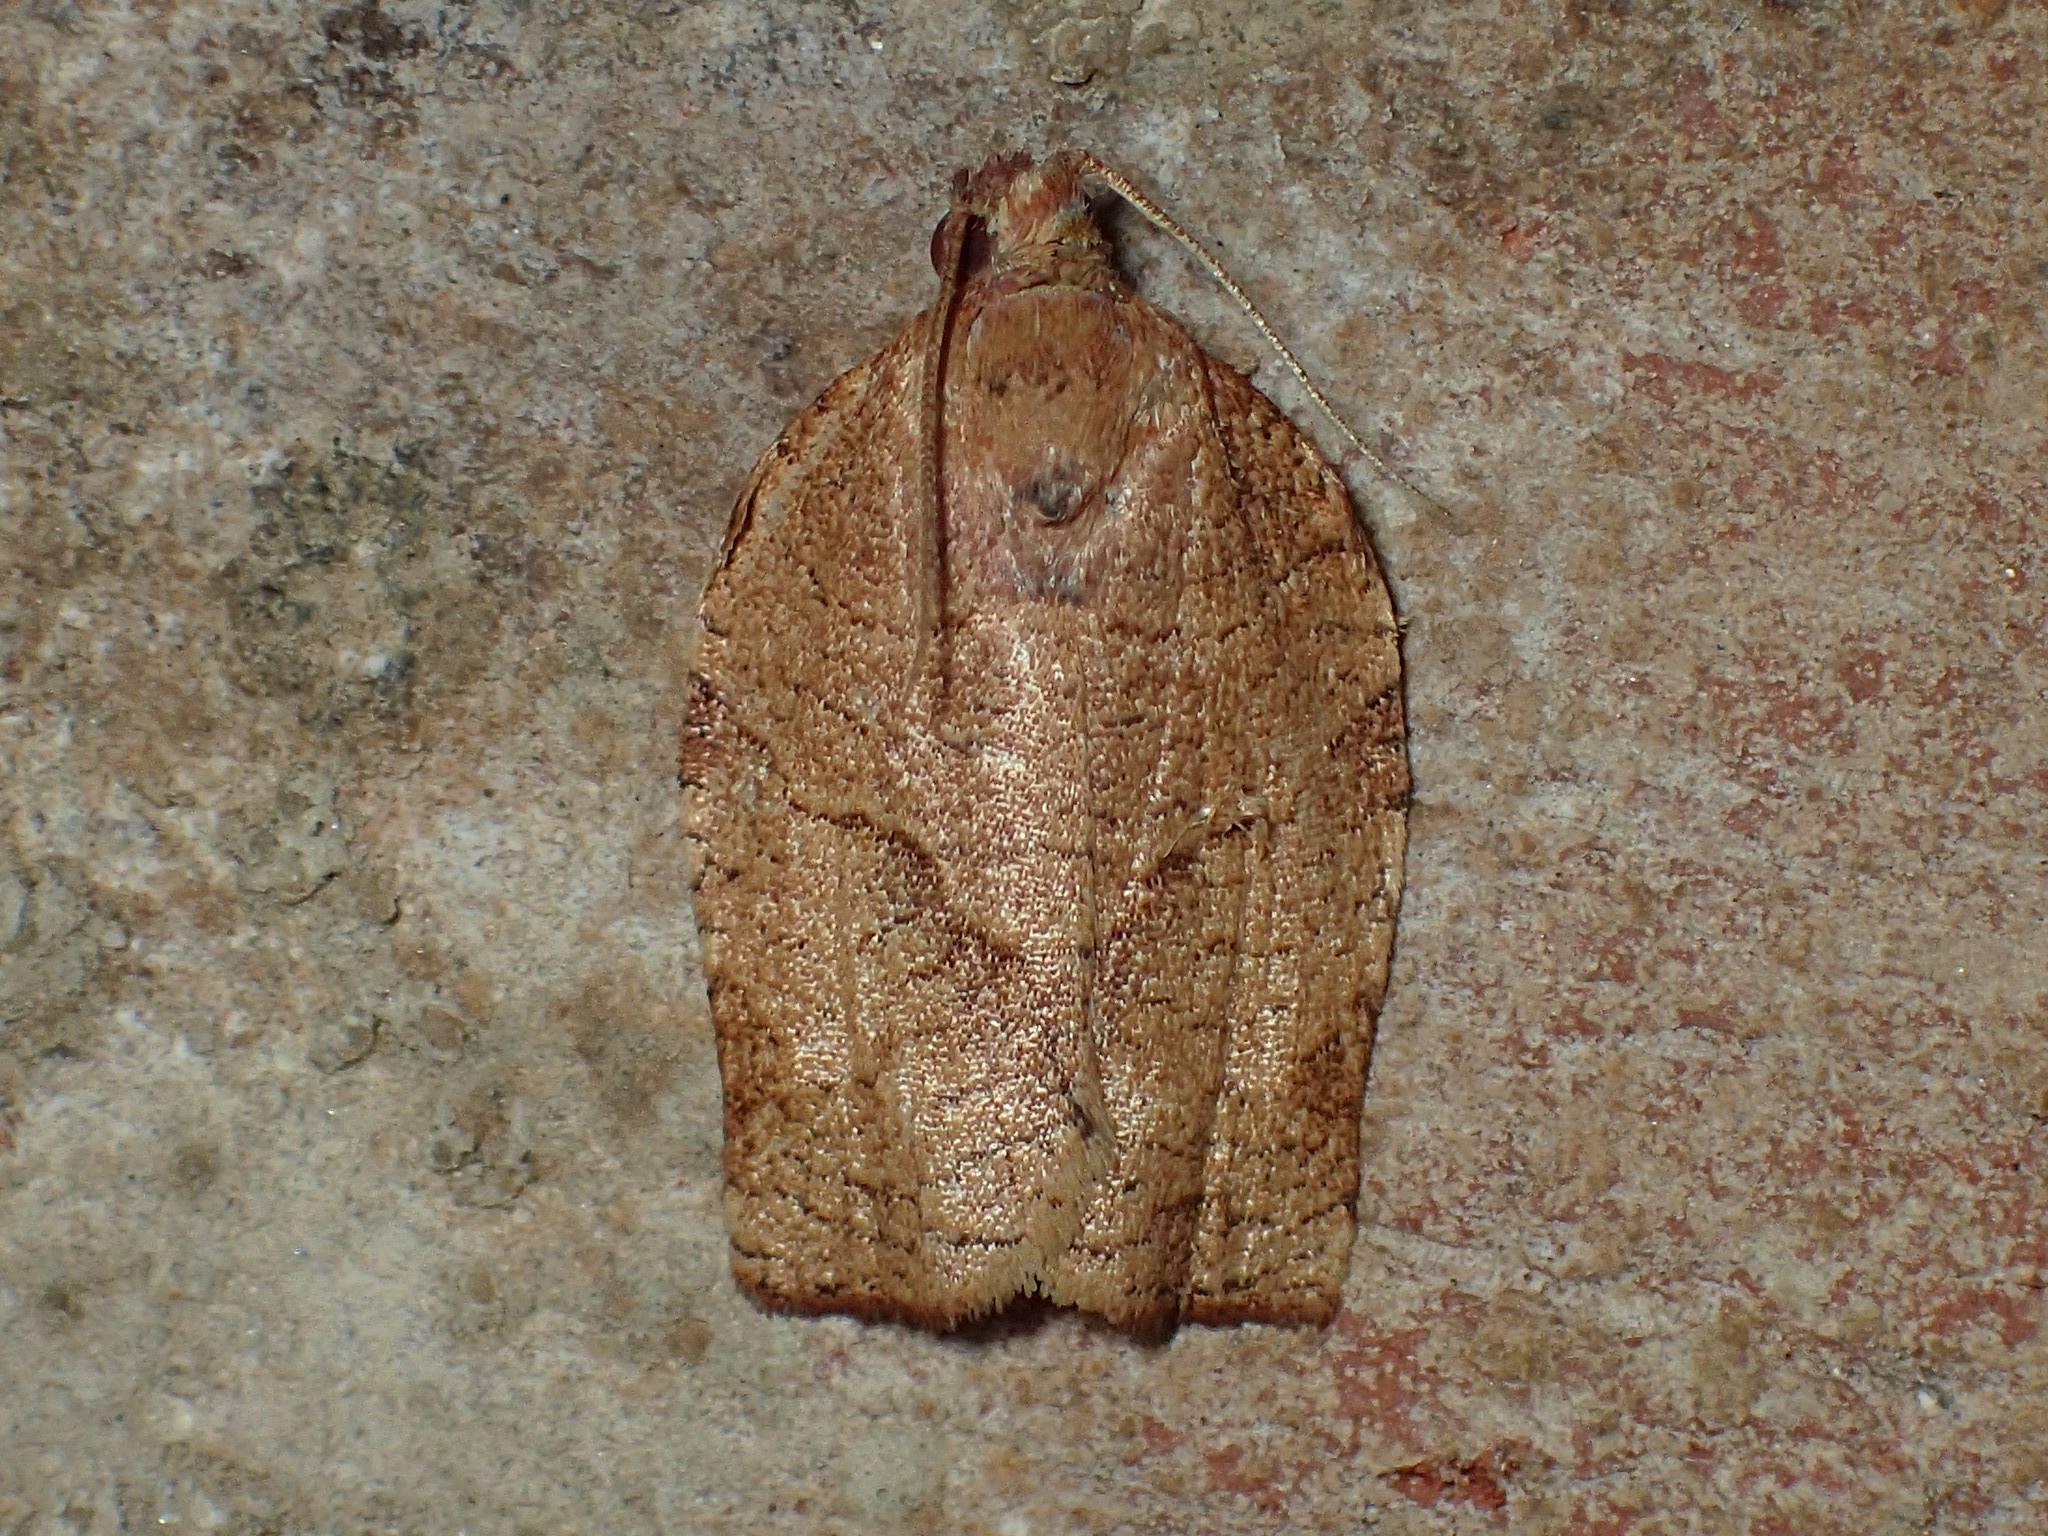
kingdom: Animalia
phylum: Arthropoda
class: Insecta
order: Lepidoptera
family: Tortricidae
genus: Choristoneura
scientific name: Choristoneura rosaceana
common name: Oblique-banded leafroller moth
